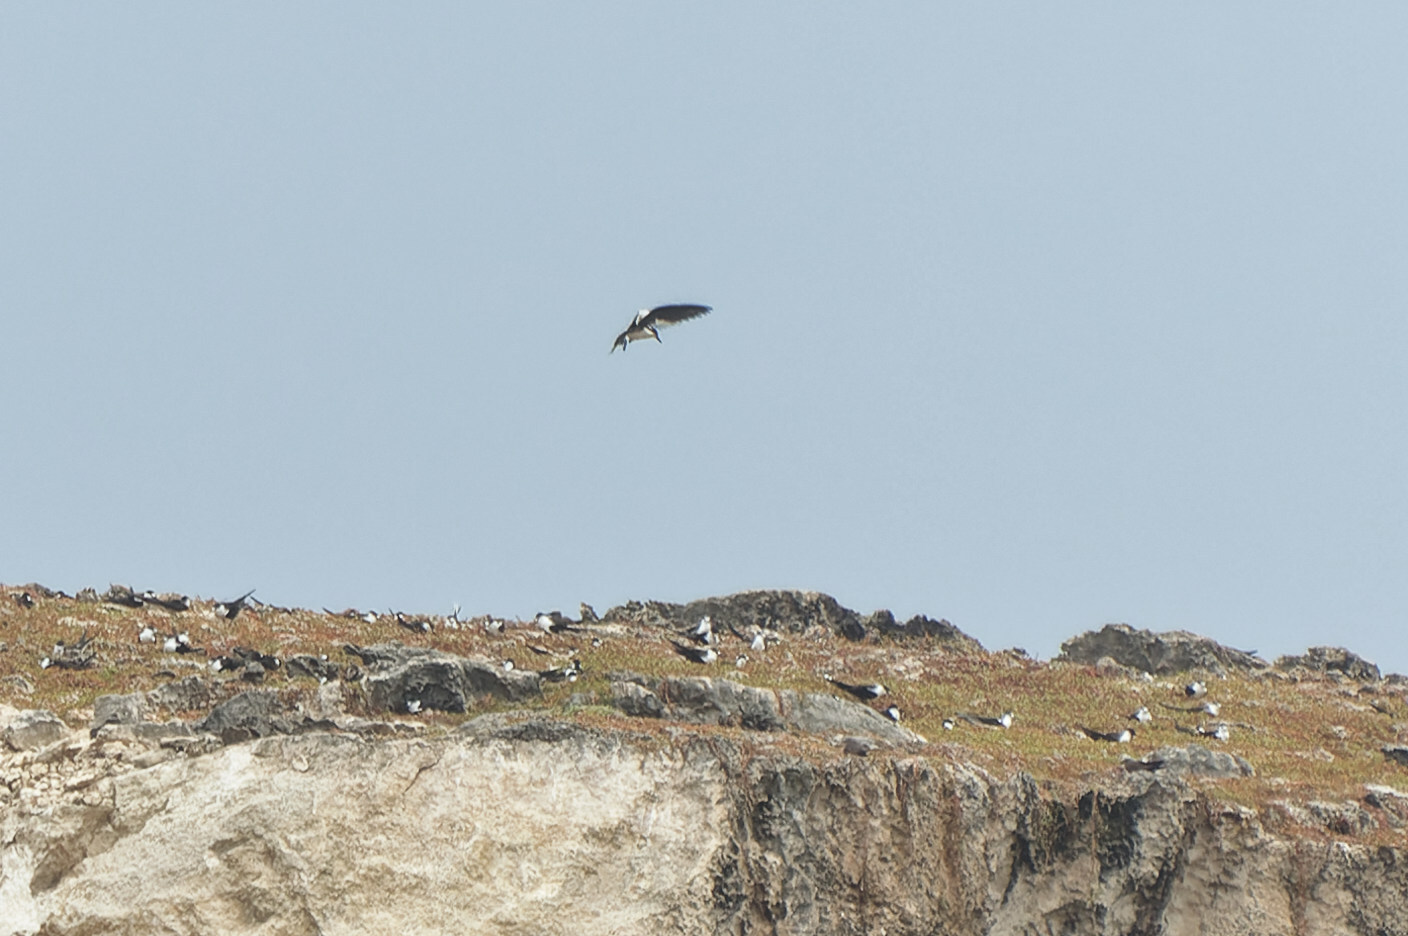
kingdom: Animalia
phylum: Chordata
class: Aves
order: Charadriiformes
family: Laridae
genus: Onychoprion
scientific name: Onychoprion fuscatus
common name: Sooty tern
